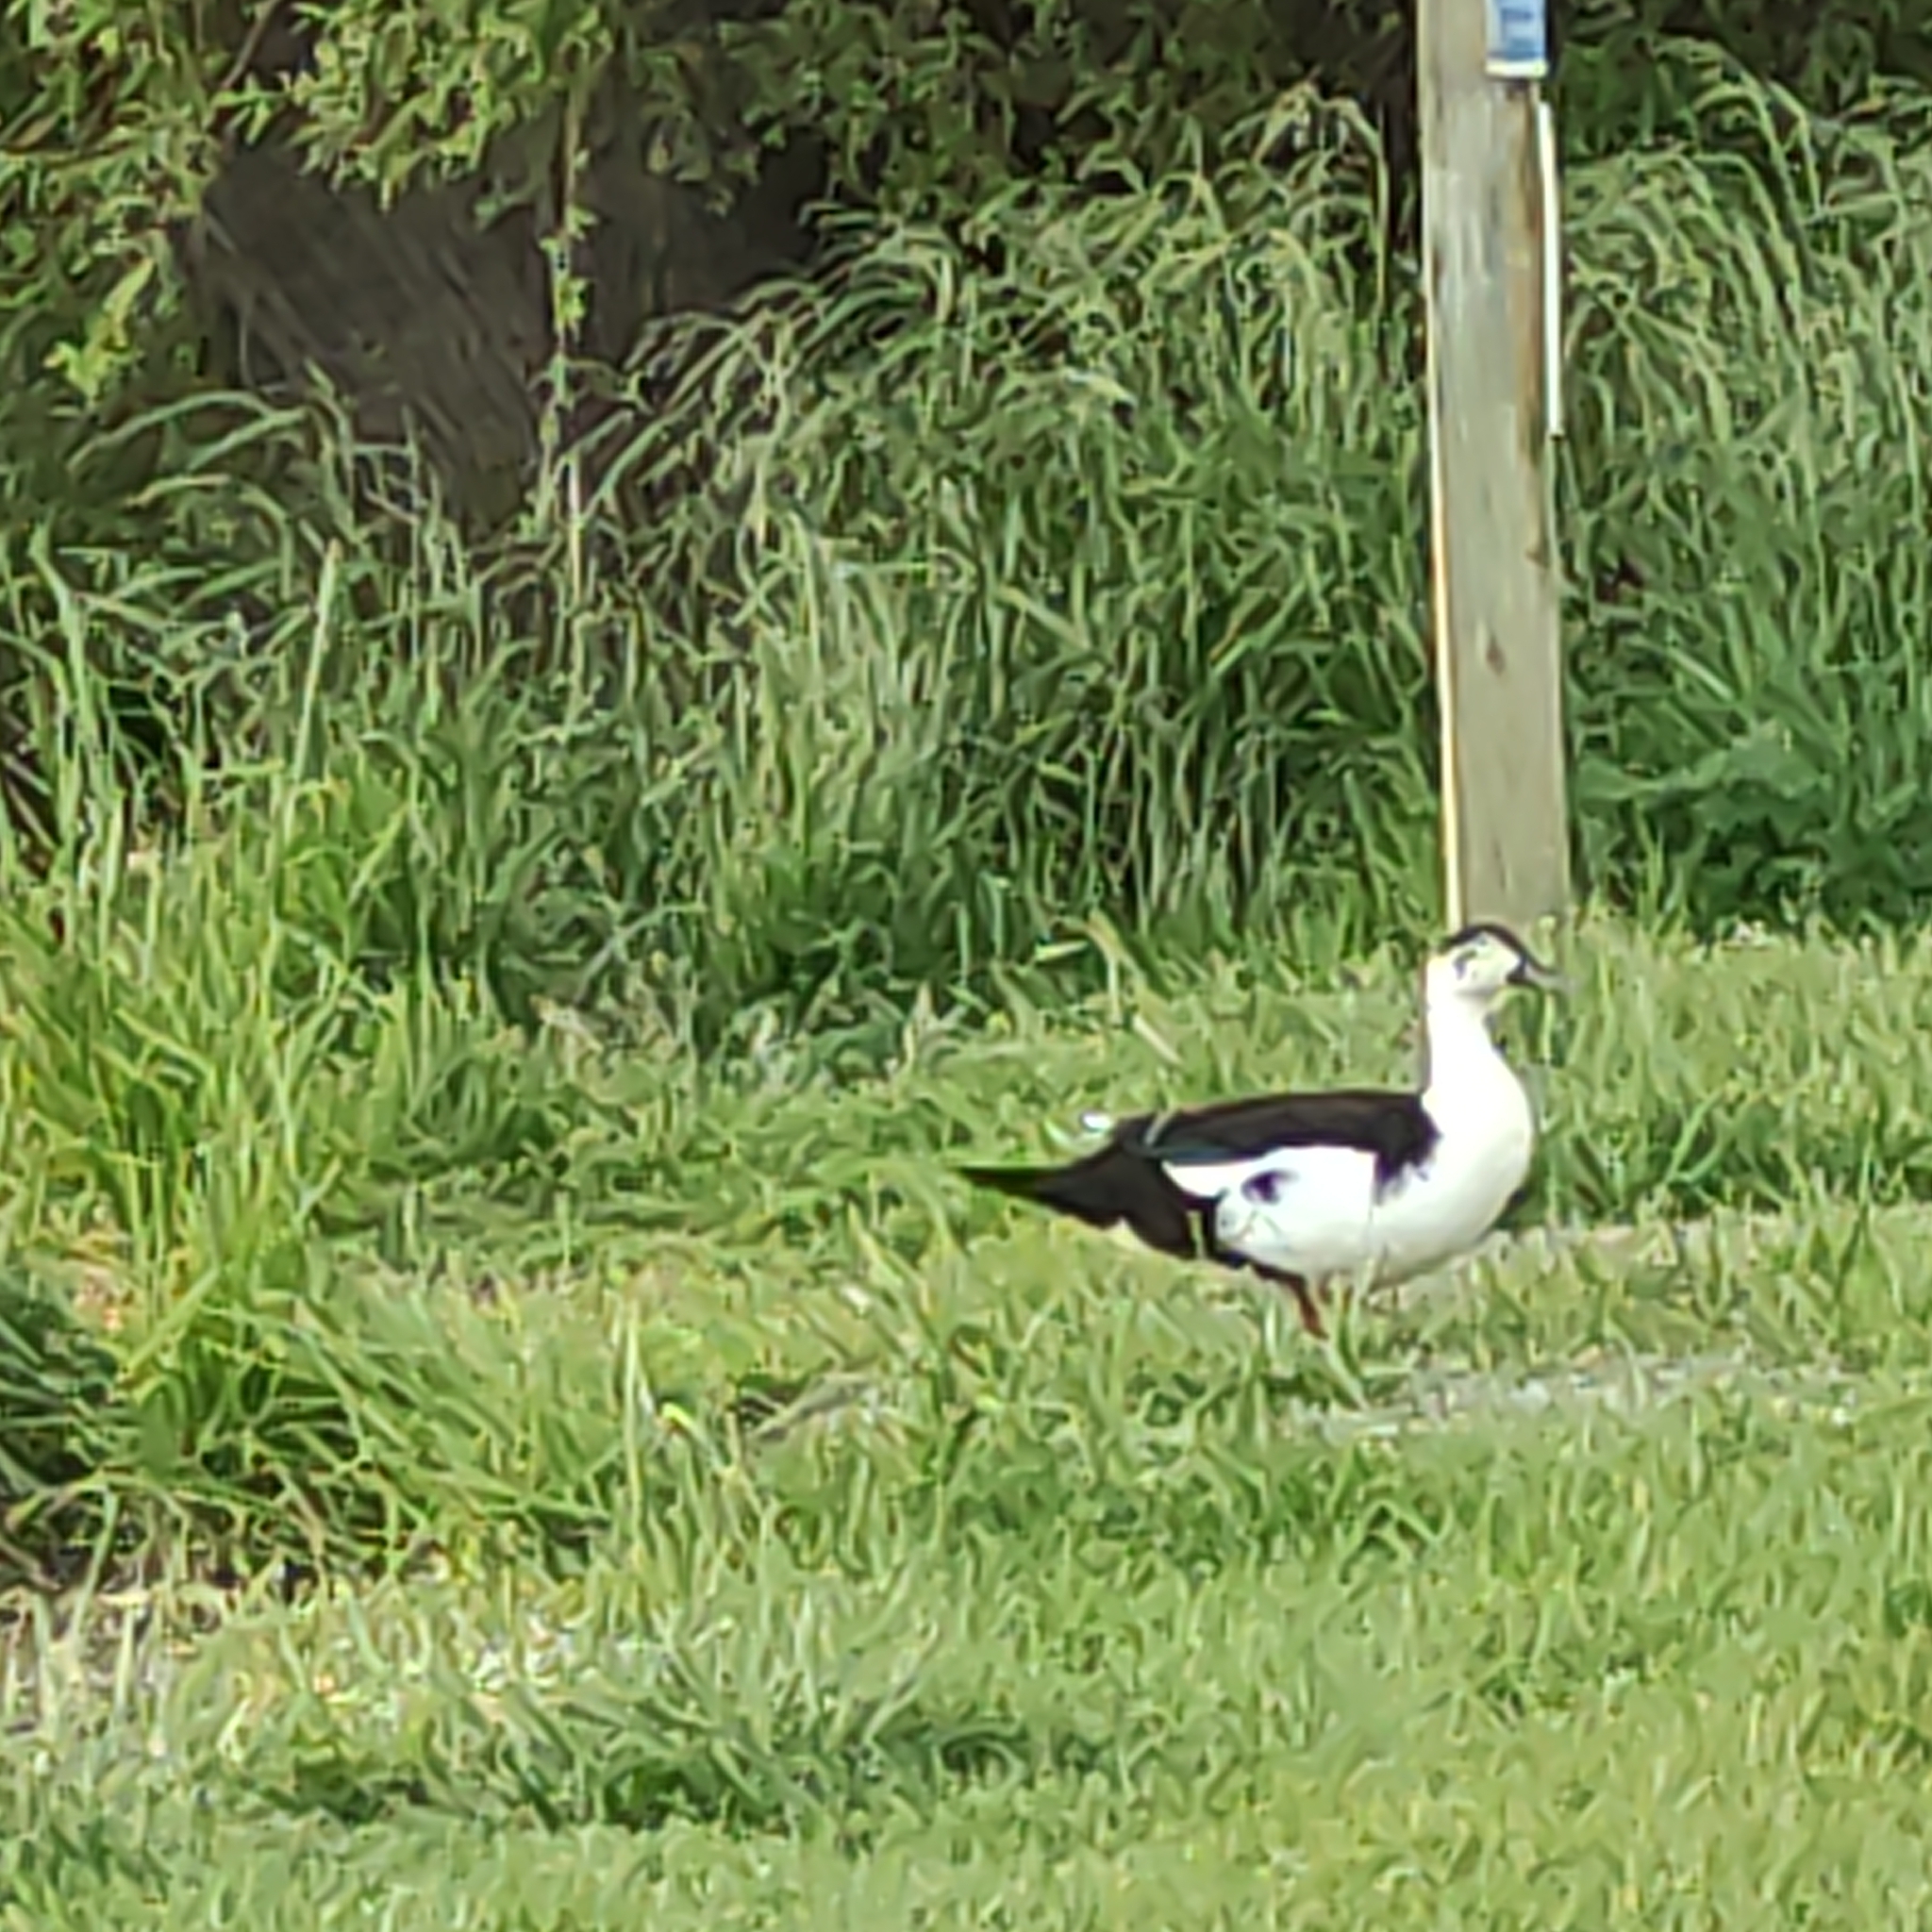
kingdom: Animalia
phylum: Chordata
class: Aves
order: Anseriformes
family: Anatidae
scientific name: Anatidae
